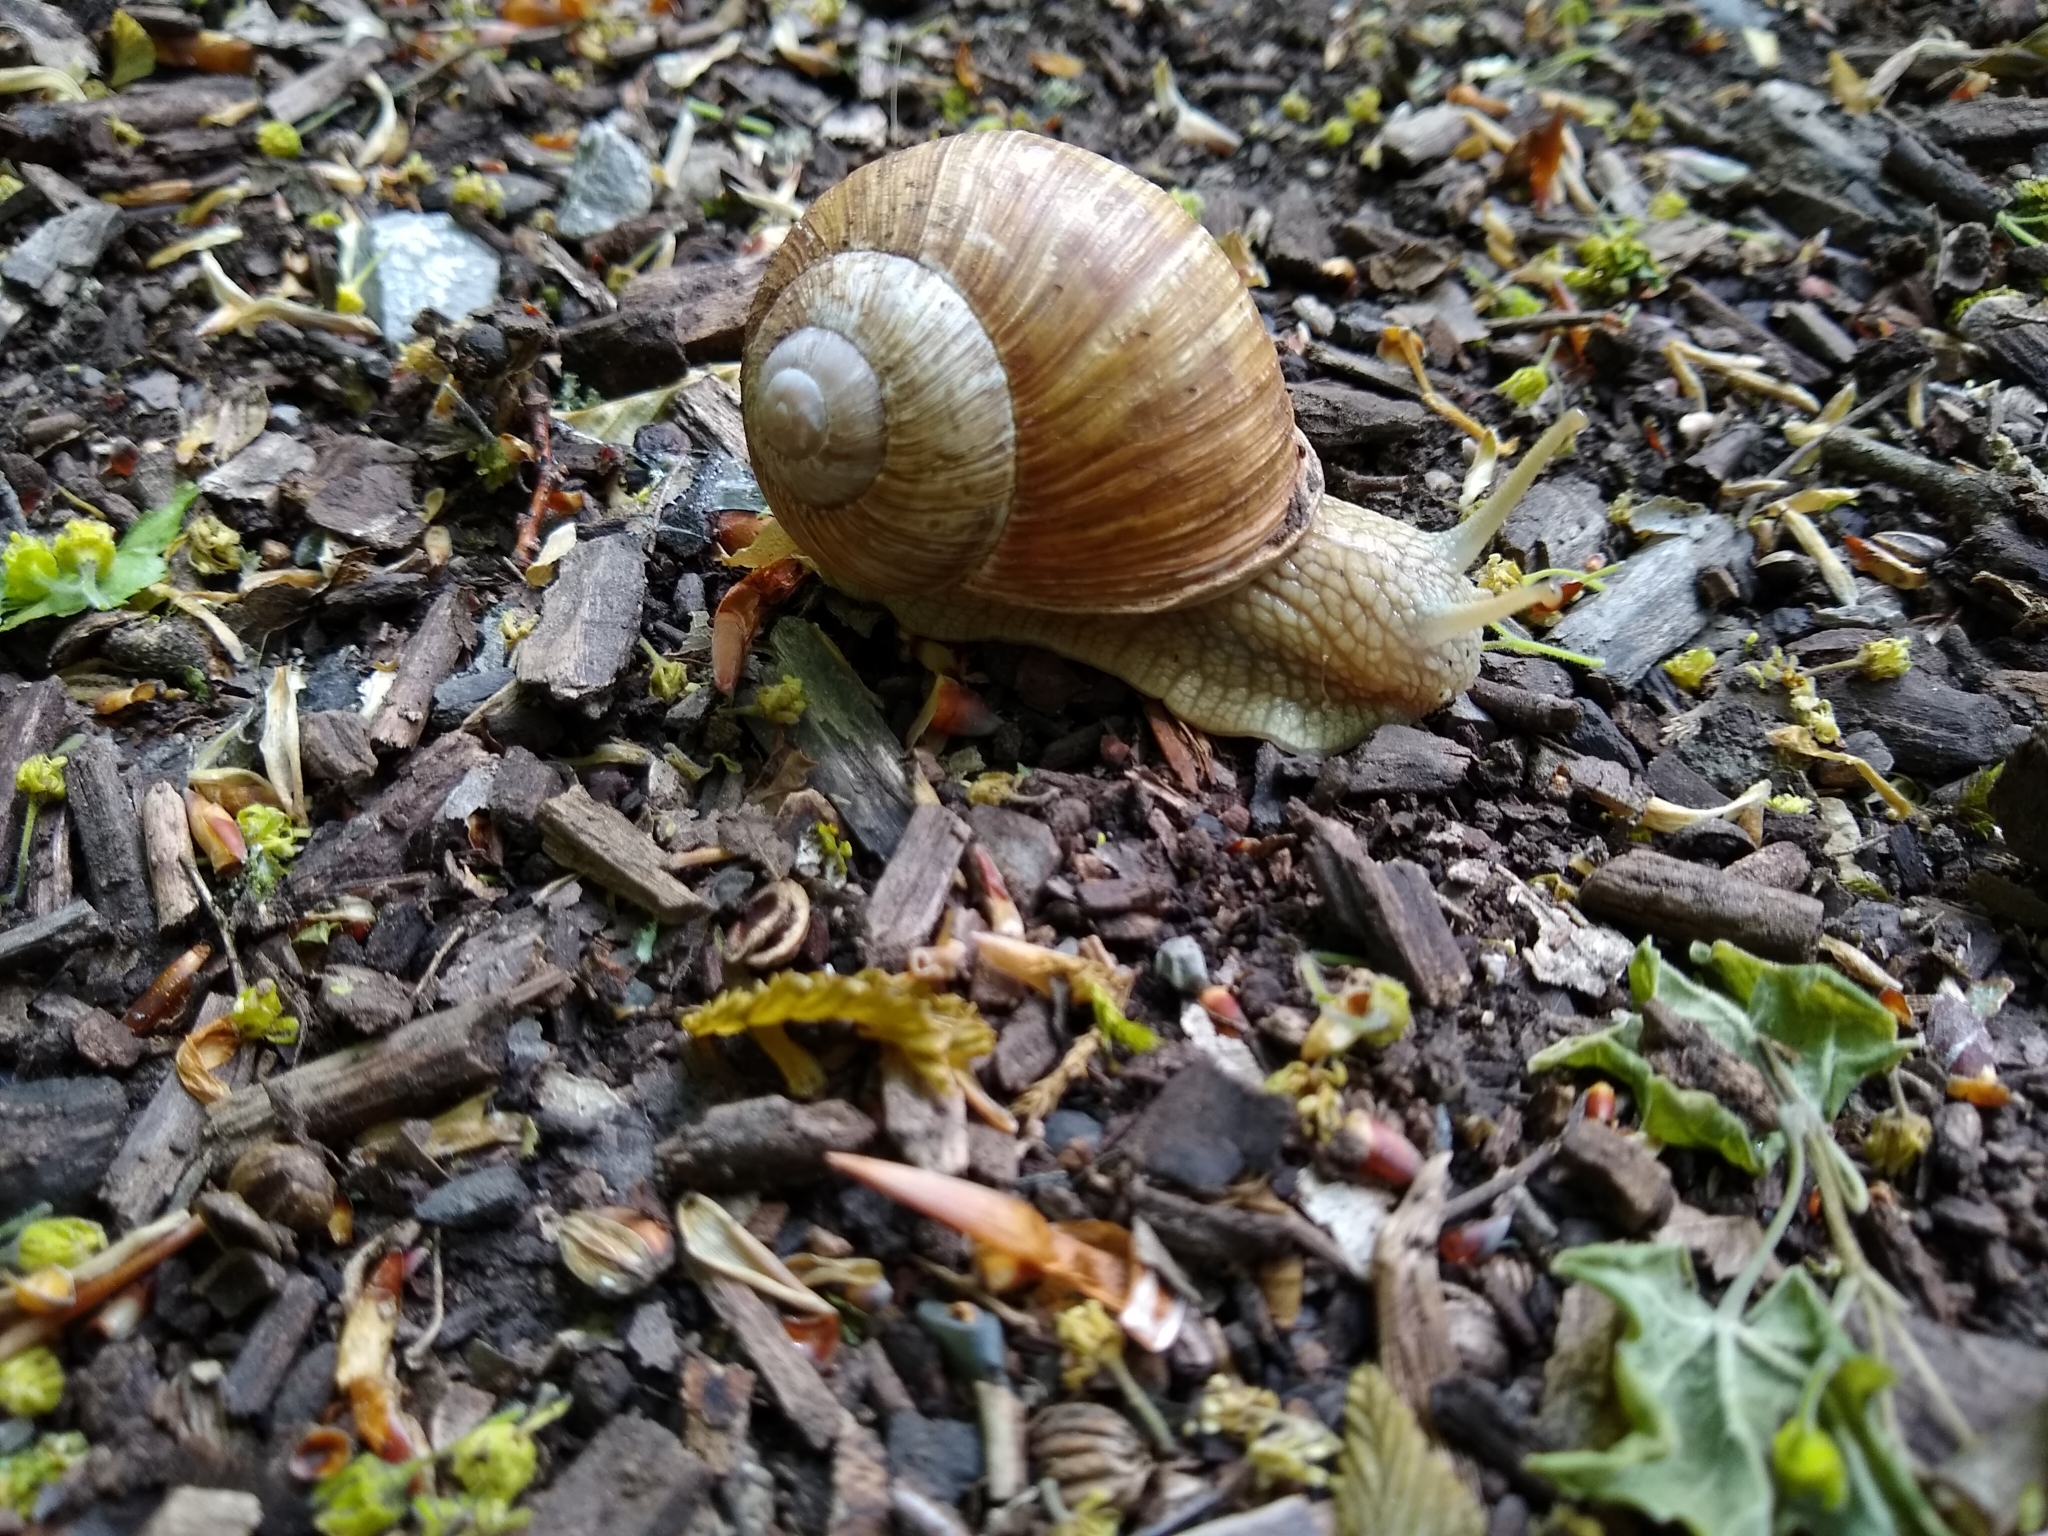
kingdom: Animalia
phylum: Mollusca
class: Gastropoda
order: Stylommatophora
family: Helicidae
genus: Helix
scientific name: Helix pomatia
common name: Roman snail
